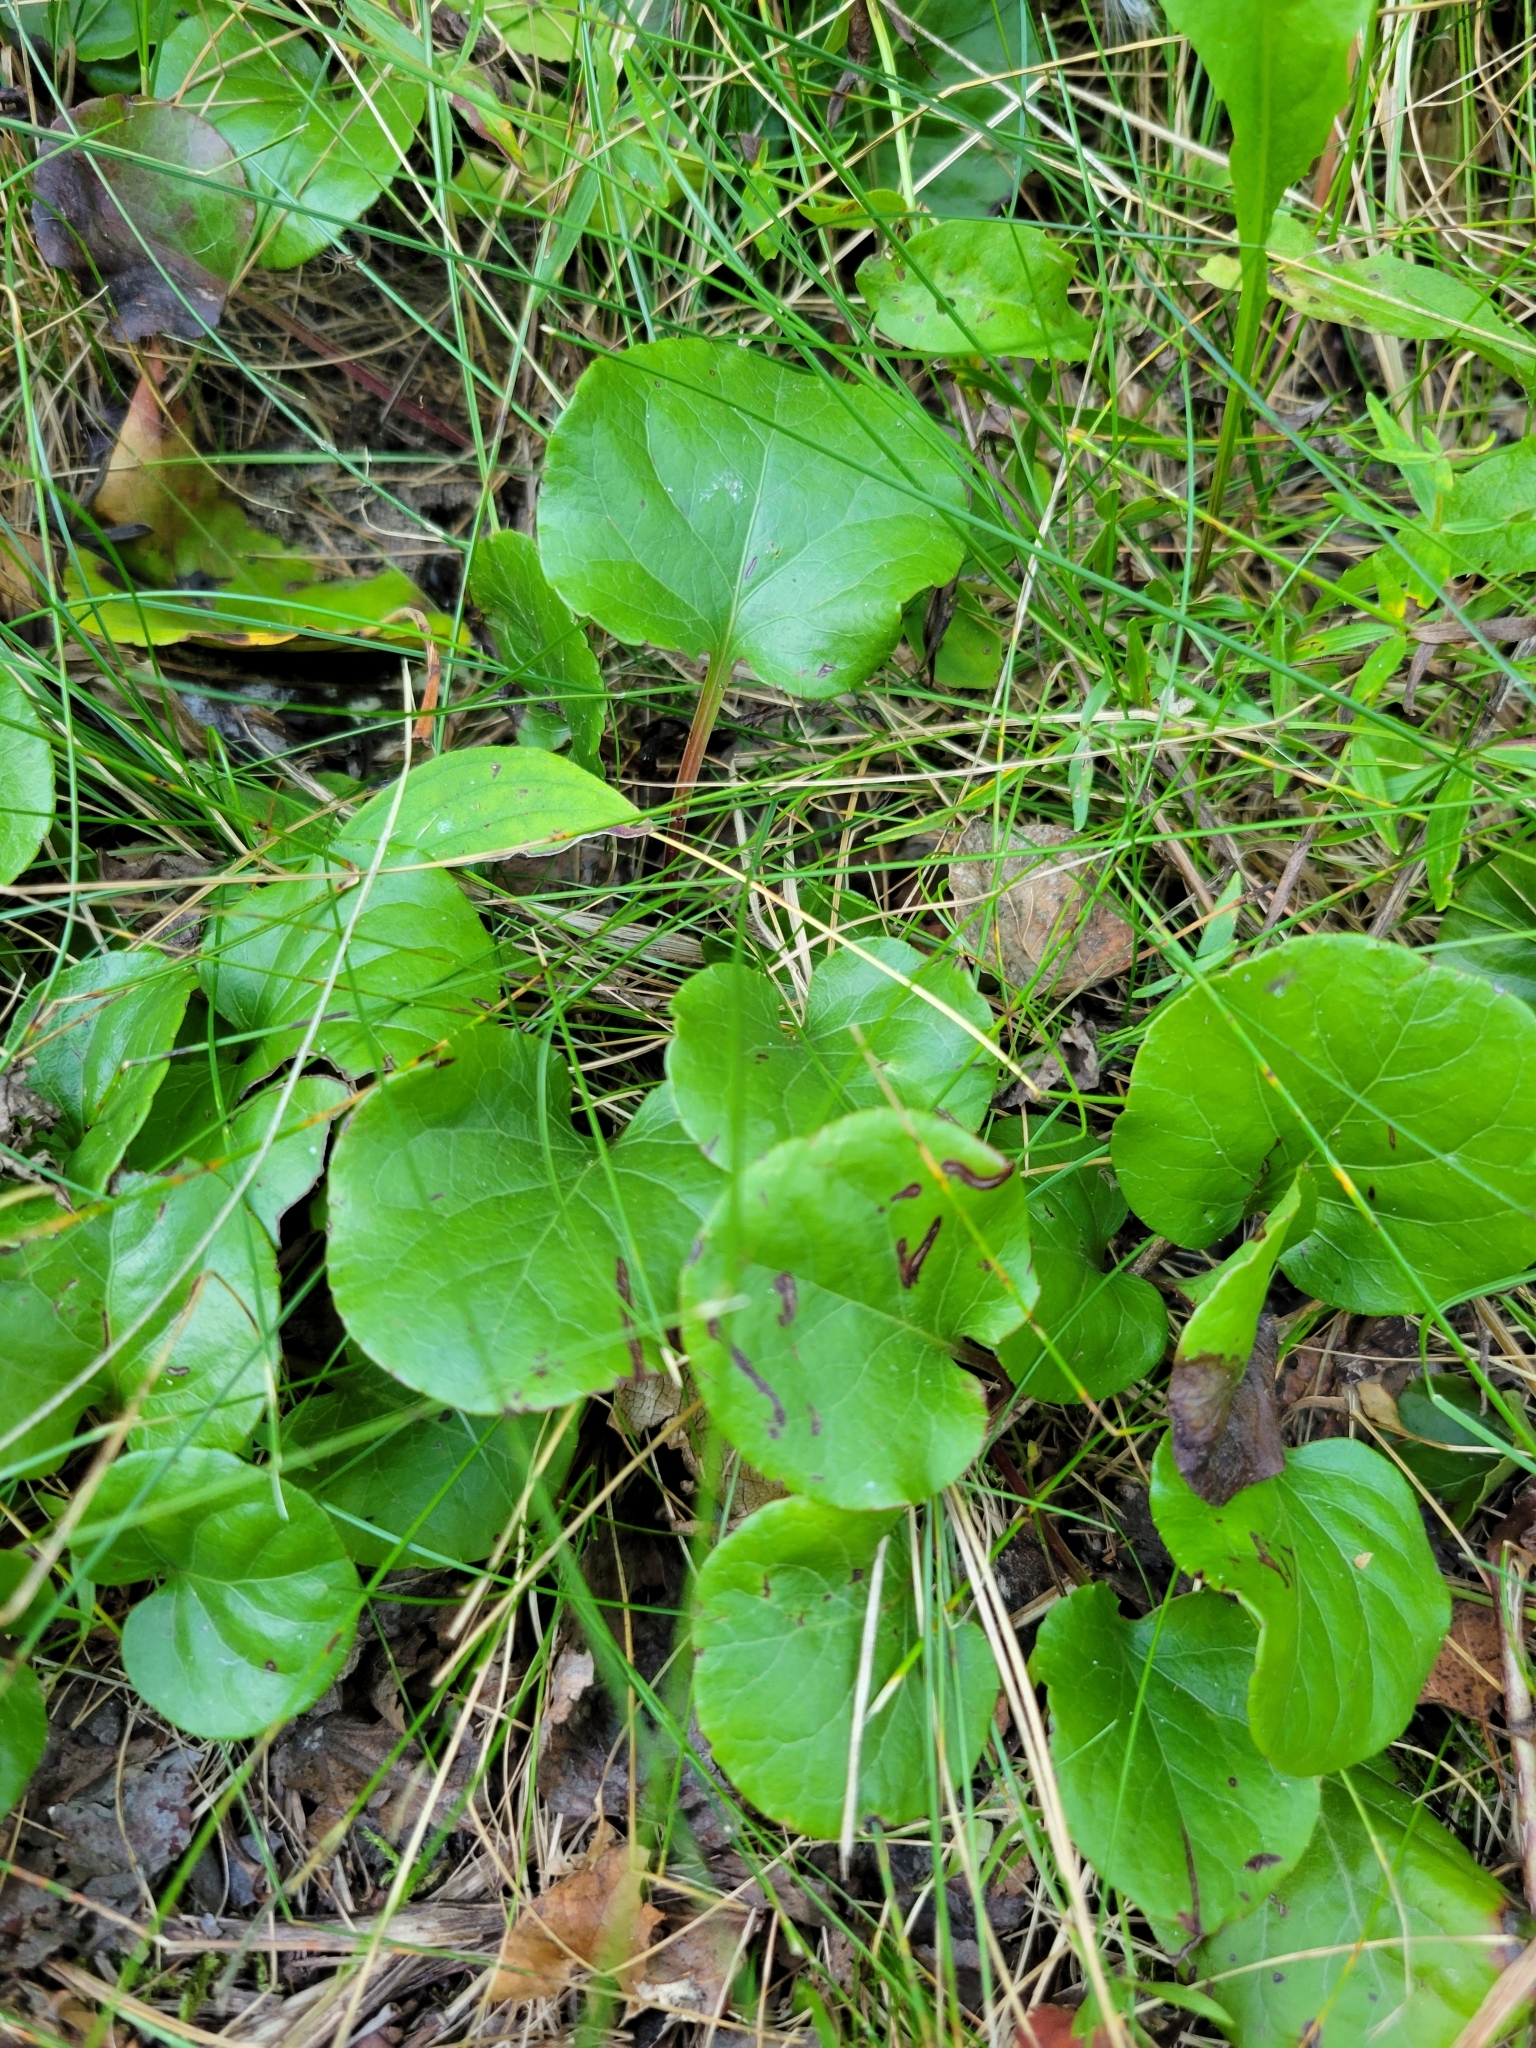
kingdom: Plantae
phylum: Tracheophyta
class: Magnoliopsida
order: Ericales
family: Ericaceae
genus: Pyrola
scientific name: Pyrola asarifolia
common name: Bog wintergreen
